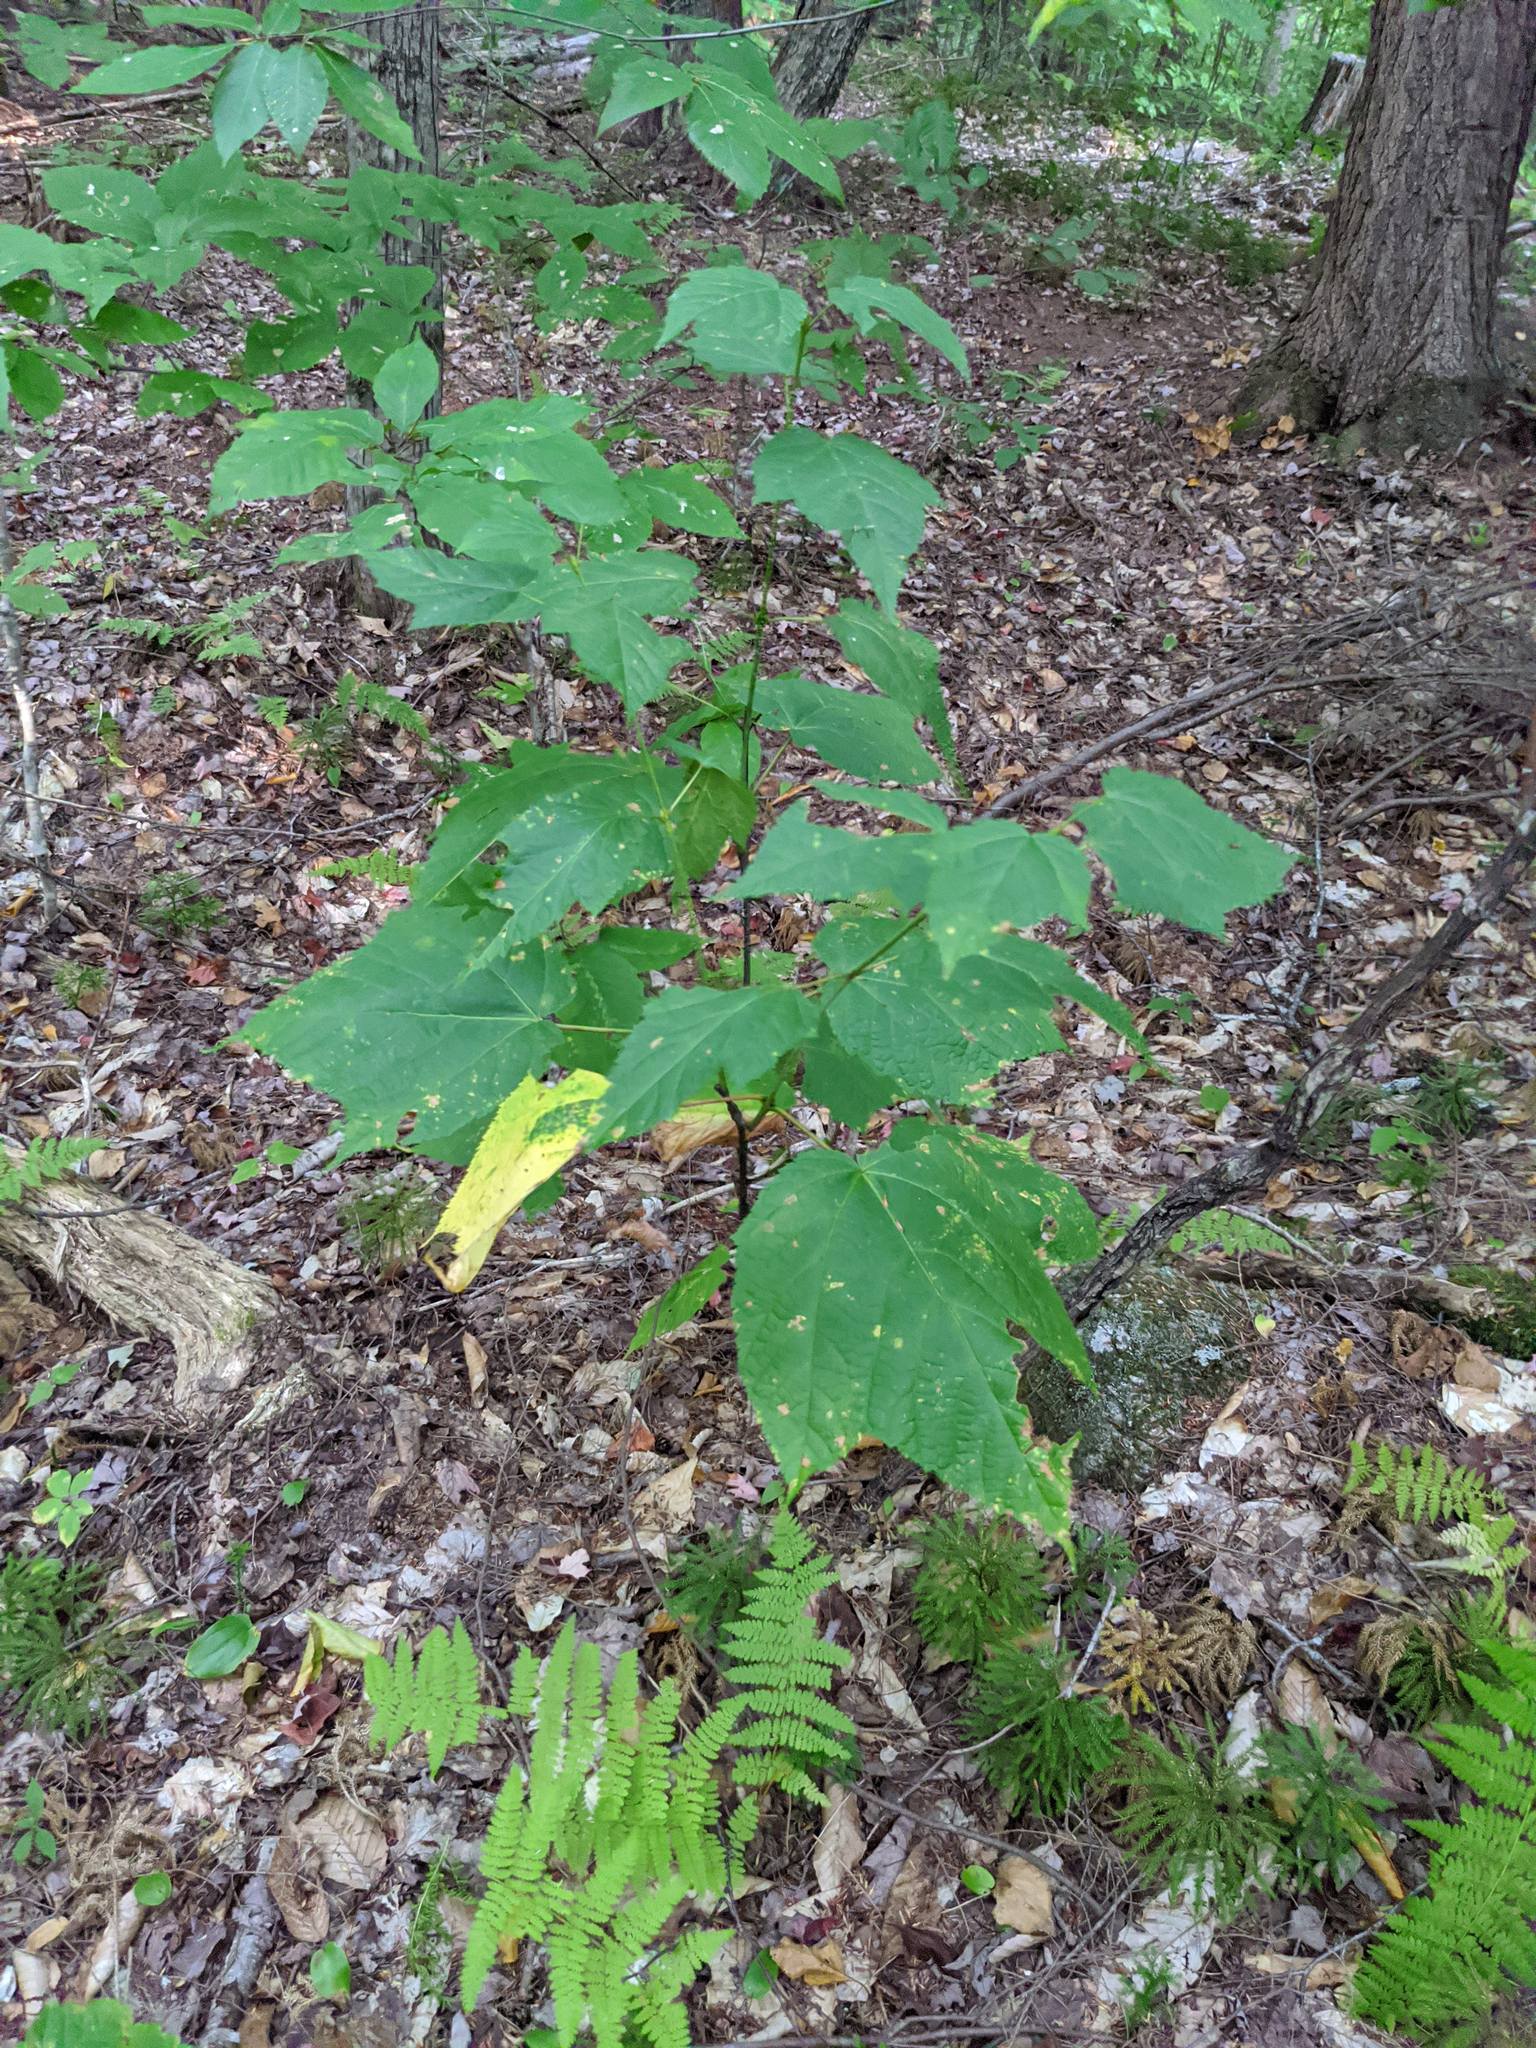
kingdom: Plantae
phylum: Tracheophyta
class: Magnoliopsida
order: Sapindales
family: Sapindaceae
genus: Acer
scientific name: Acer pensylvanicum
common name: Moosewood
